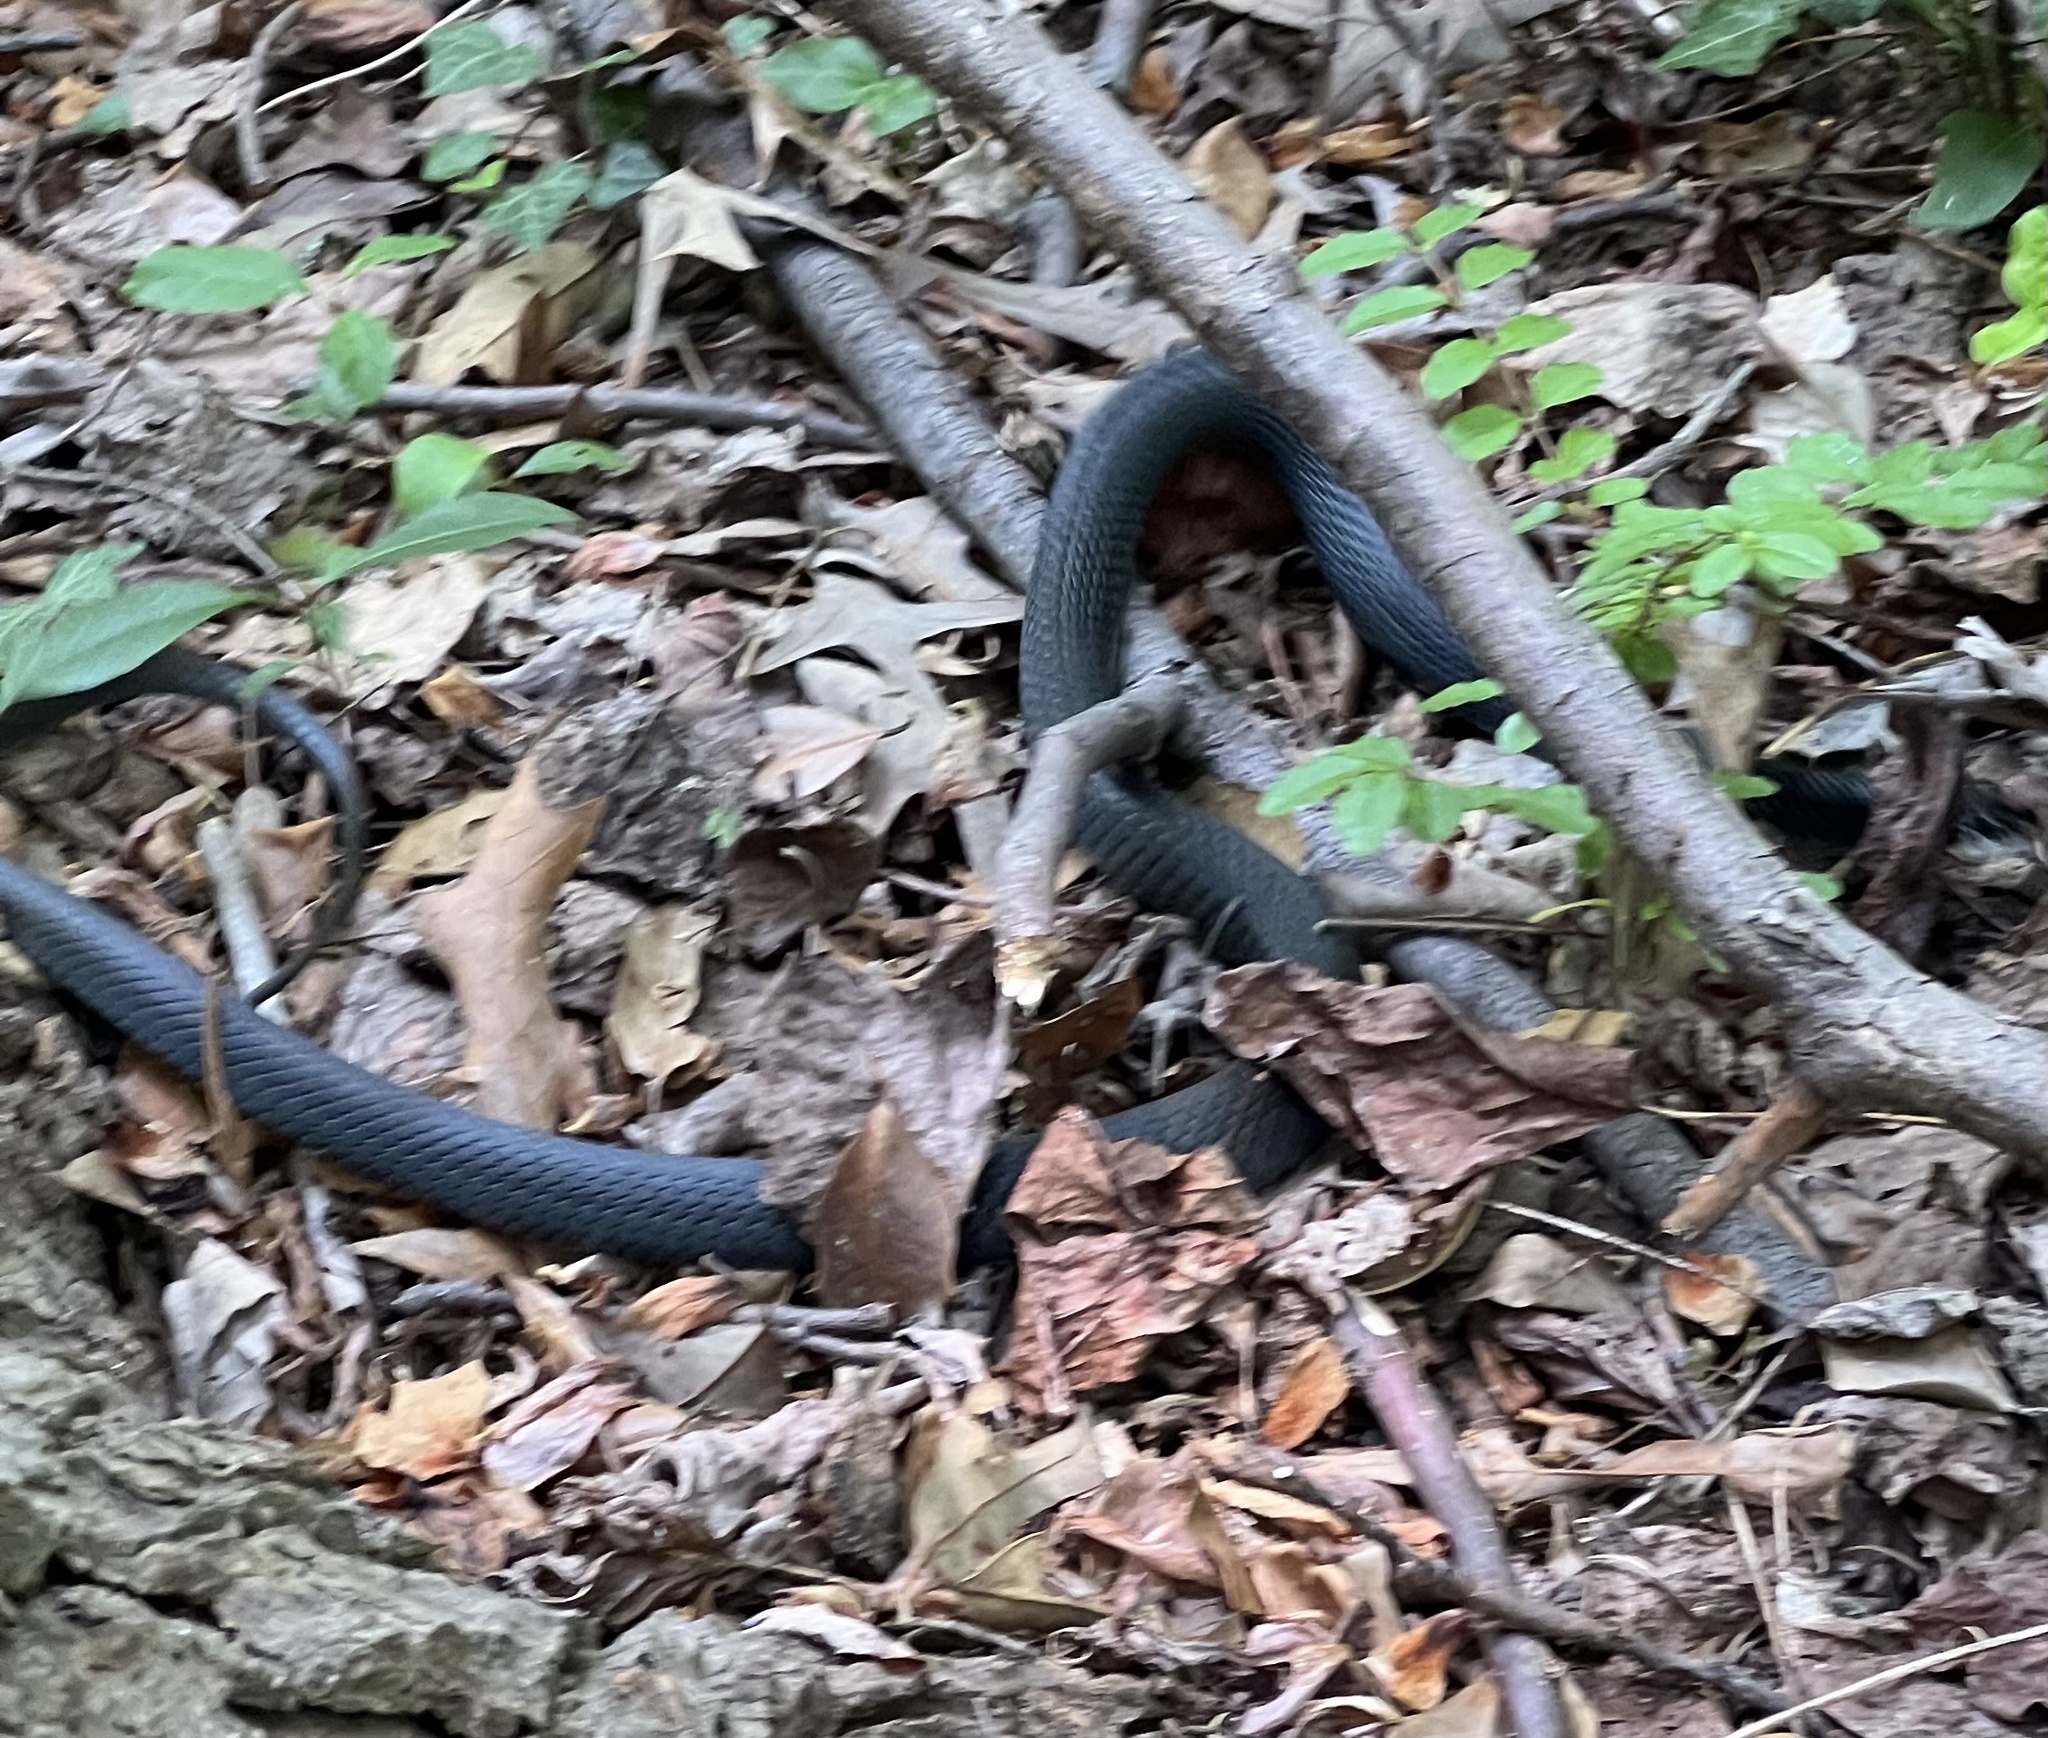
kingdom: Animalia
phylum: Chordata
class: Squamata
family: Colubridae
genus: Coluber
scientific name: Coluber constrictor
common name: Eastern racer
